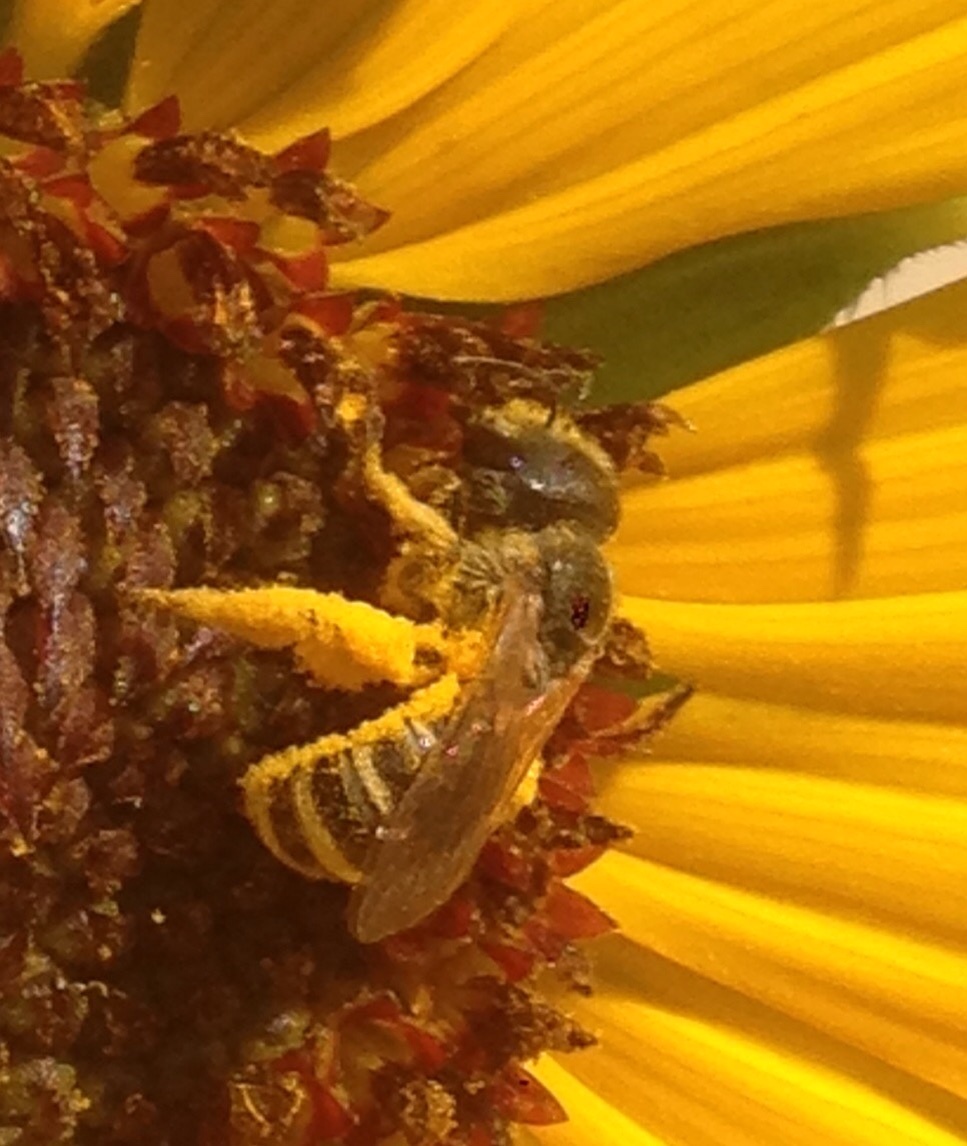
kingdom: Animalia
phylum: Arthropoda
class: Insecta
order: Hymenoptera
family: Halictidae
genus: Halictus
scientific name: Halictus ligatus
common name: Ligated furrow bee
